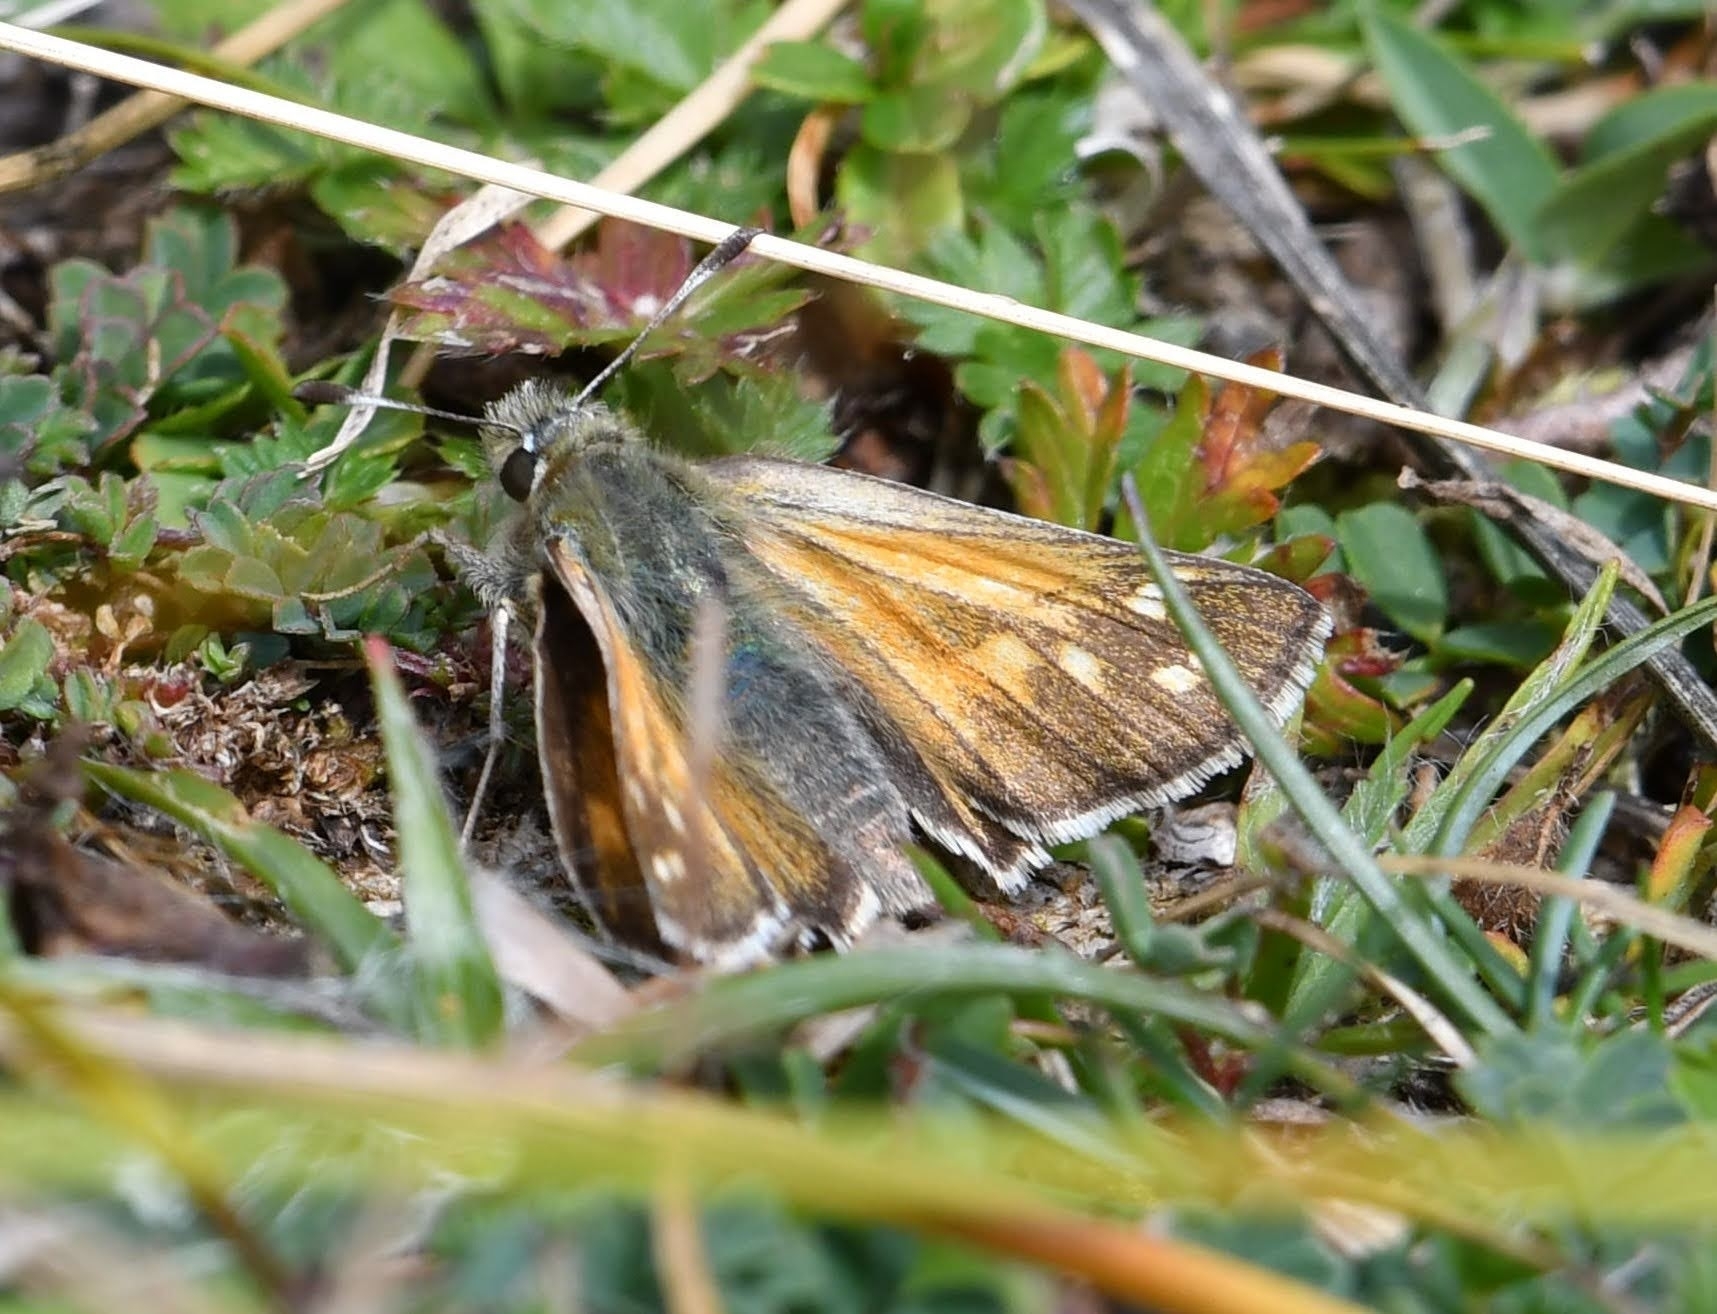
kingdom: Animalia
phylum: Arthropoda
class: Insecta
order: Lepidoptera
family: Hesperiidae
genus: Hesperia
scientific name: Hesperia comma
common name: Common branded skipper
